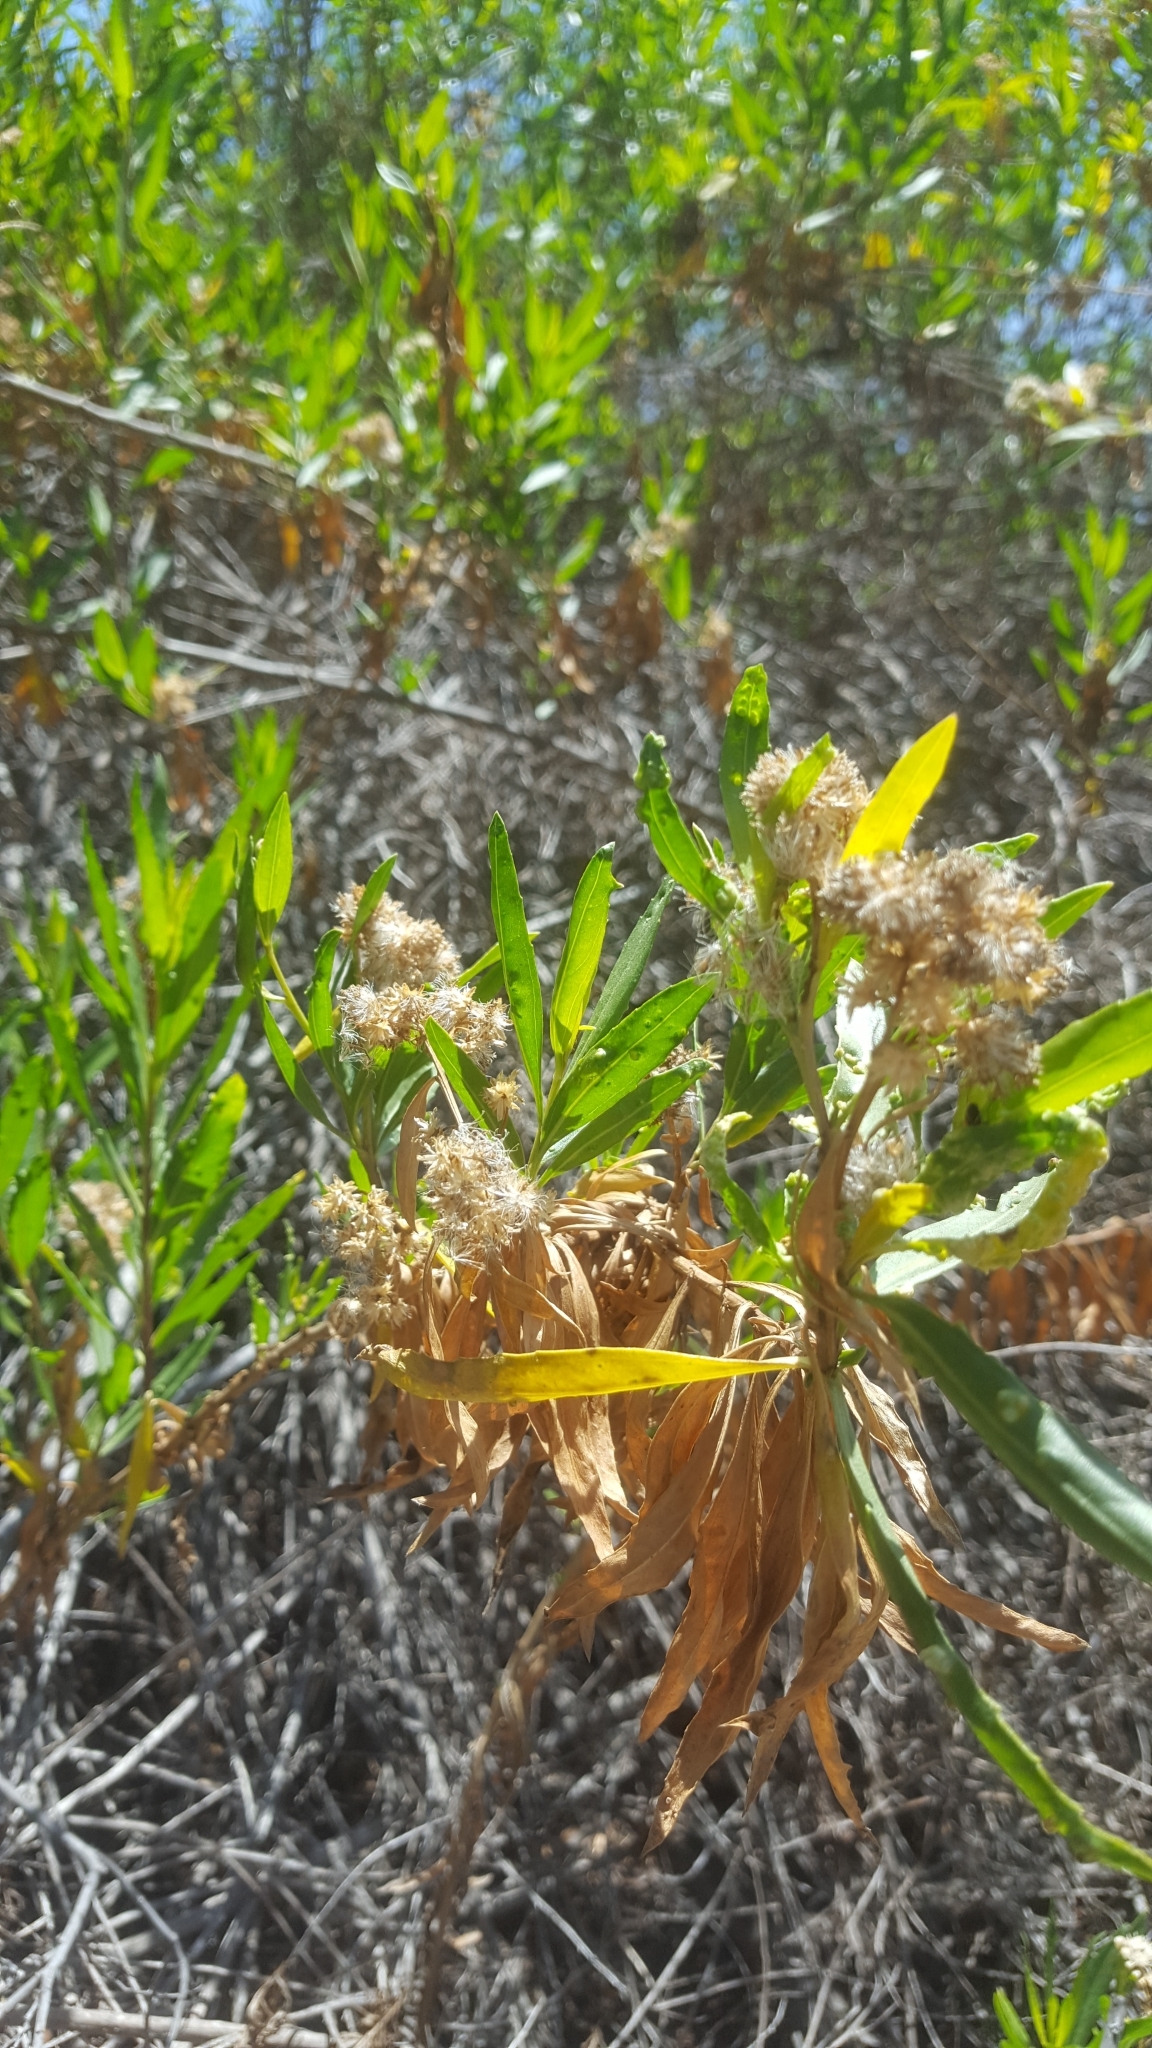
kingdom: Plantae
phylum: Tracheophyta
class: Magnoliopsida
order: Asterales
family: Asteraceae
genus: Baccharis
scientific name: Baccharis salicifolia
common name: Sticky baccharis
